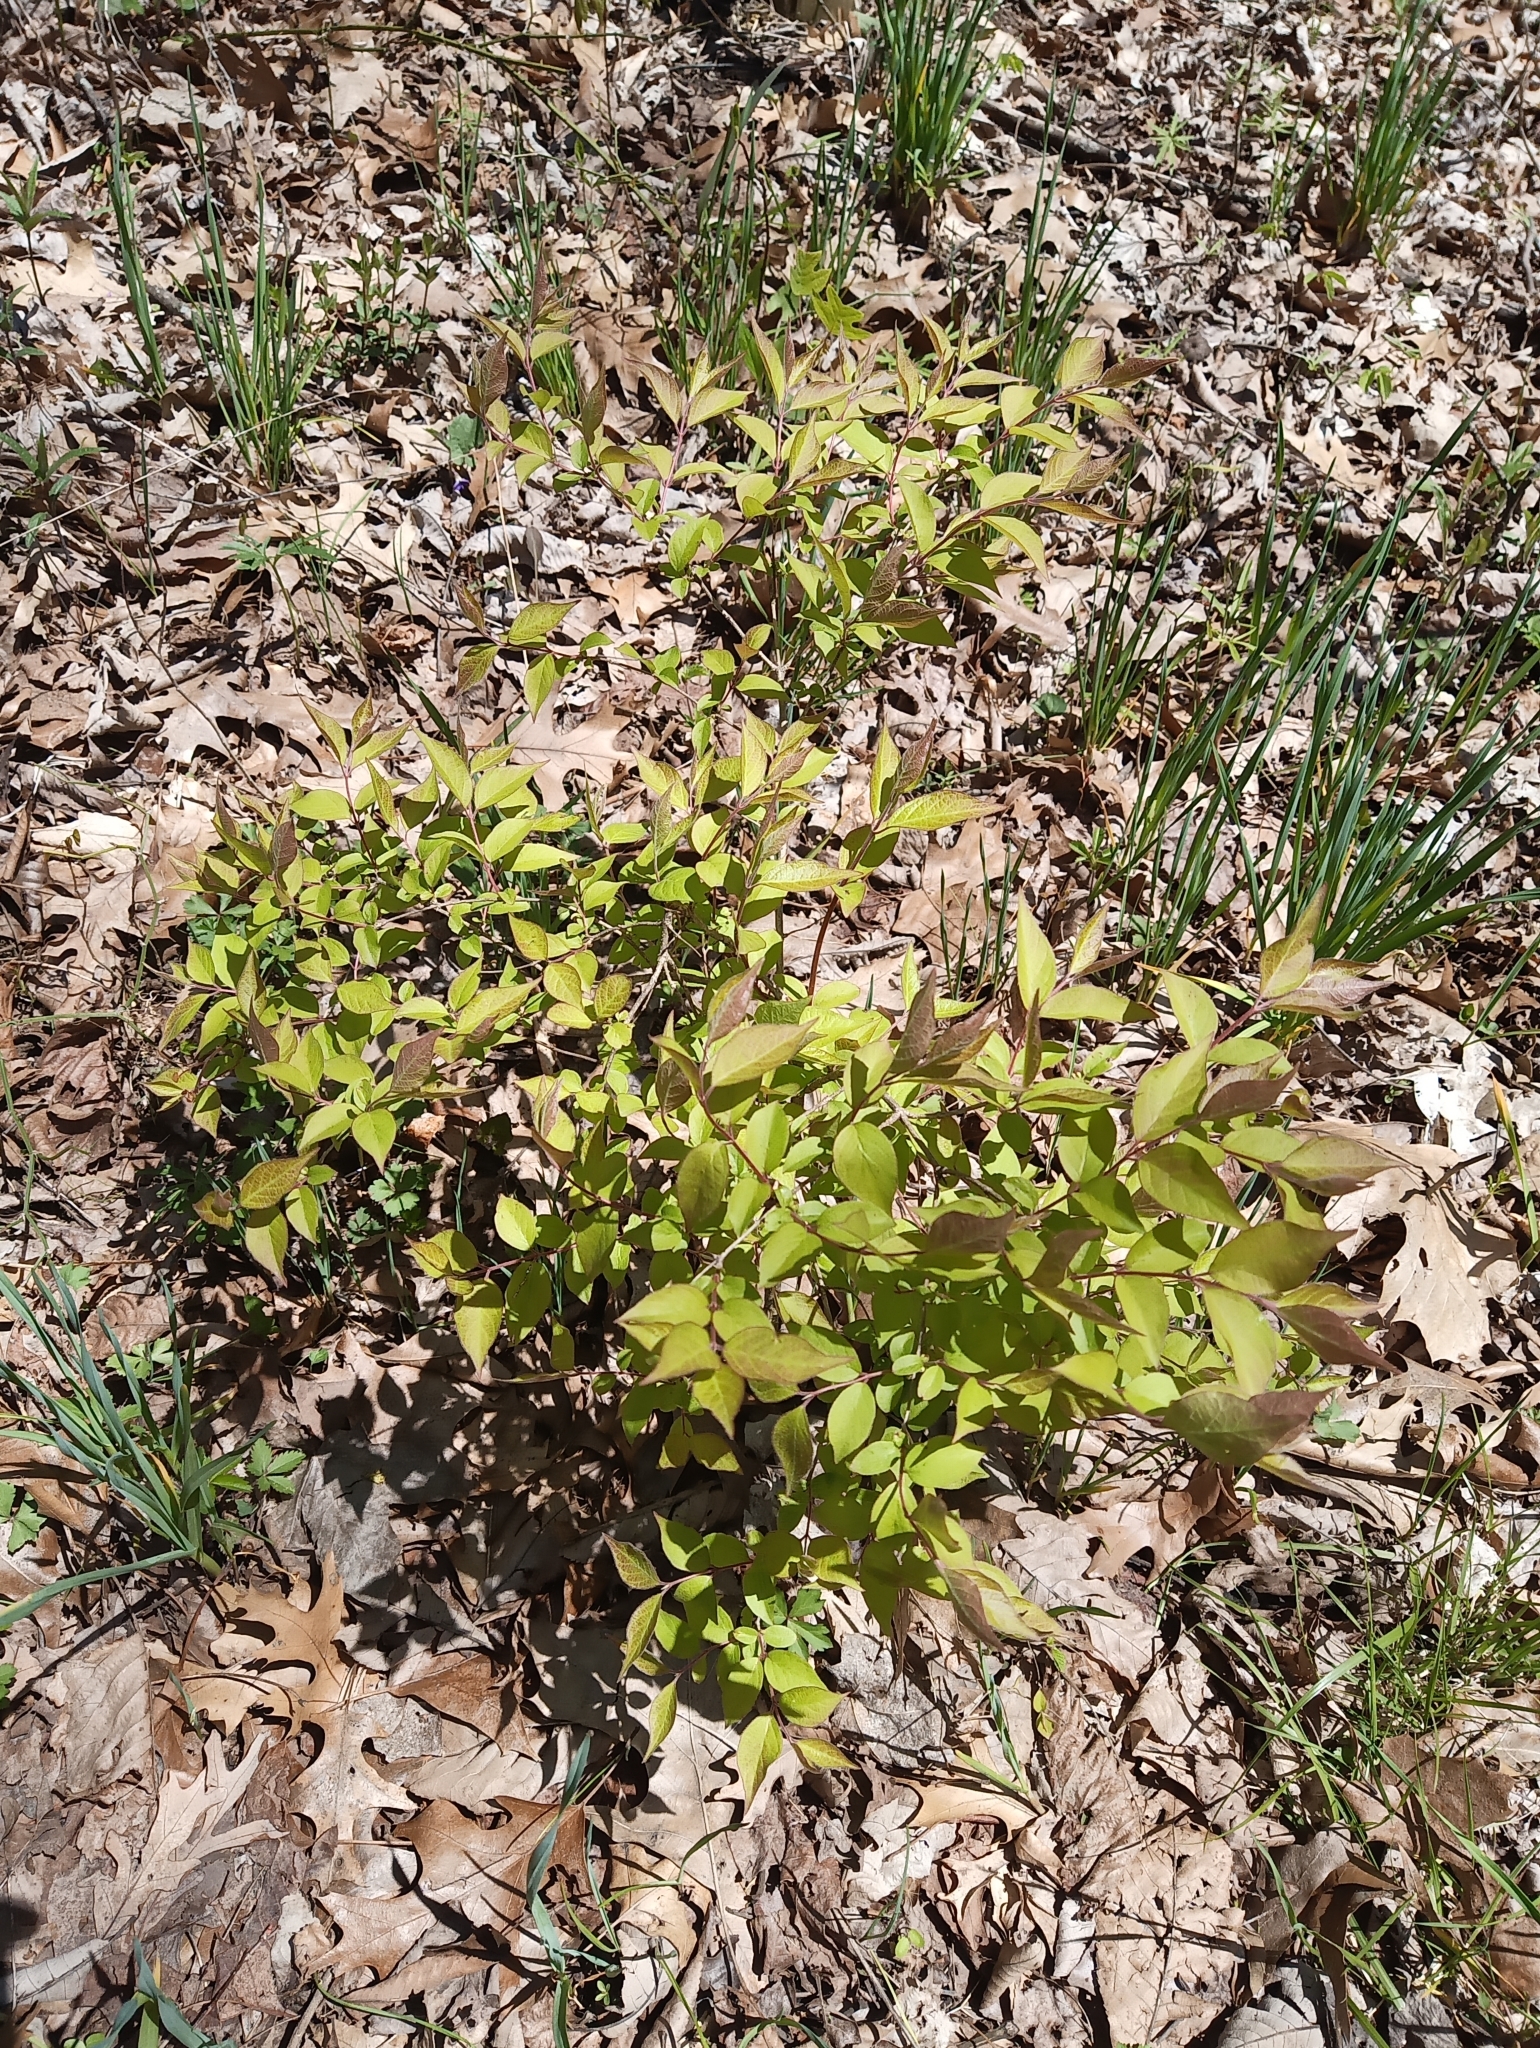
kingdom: Plantae
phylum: Tracheophyta
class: Magnoliopsida
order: Dipsacales
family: Caprifoliaceae
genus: Lonicera
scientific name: Lonicera maackii
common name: Amur honeysuckle
